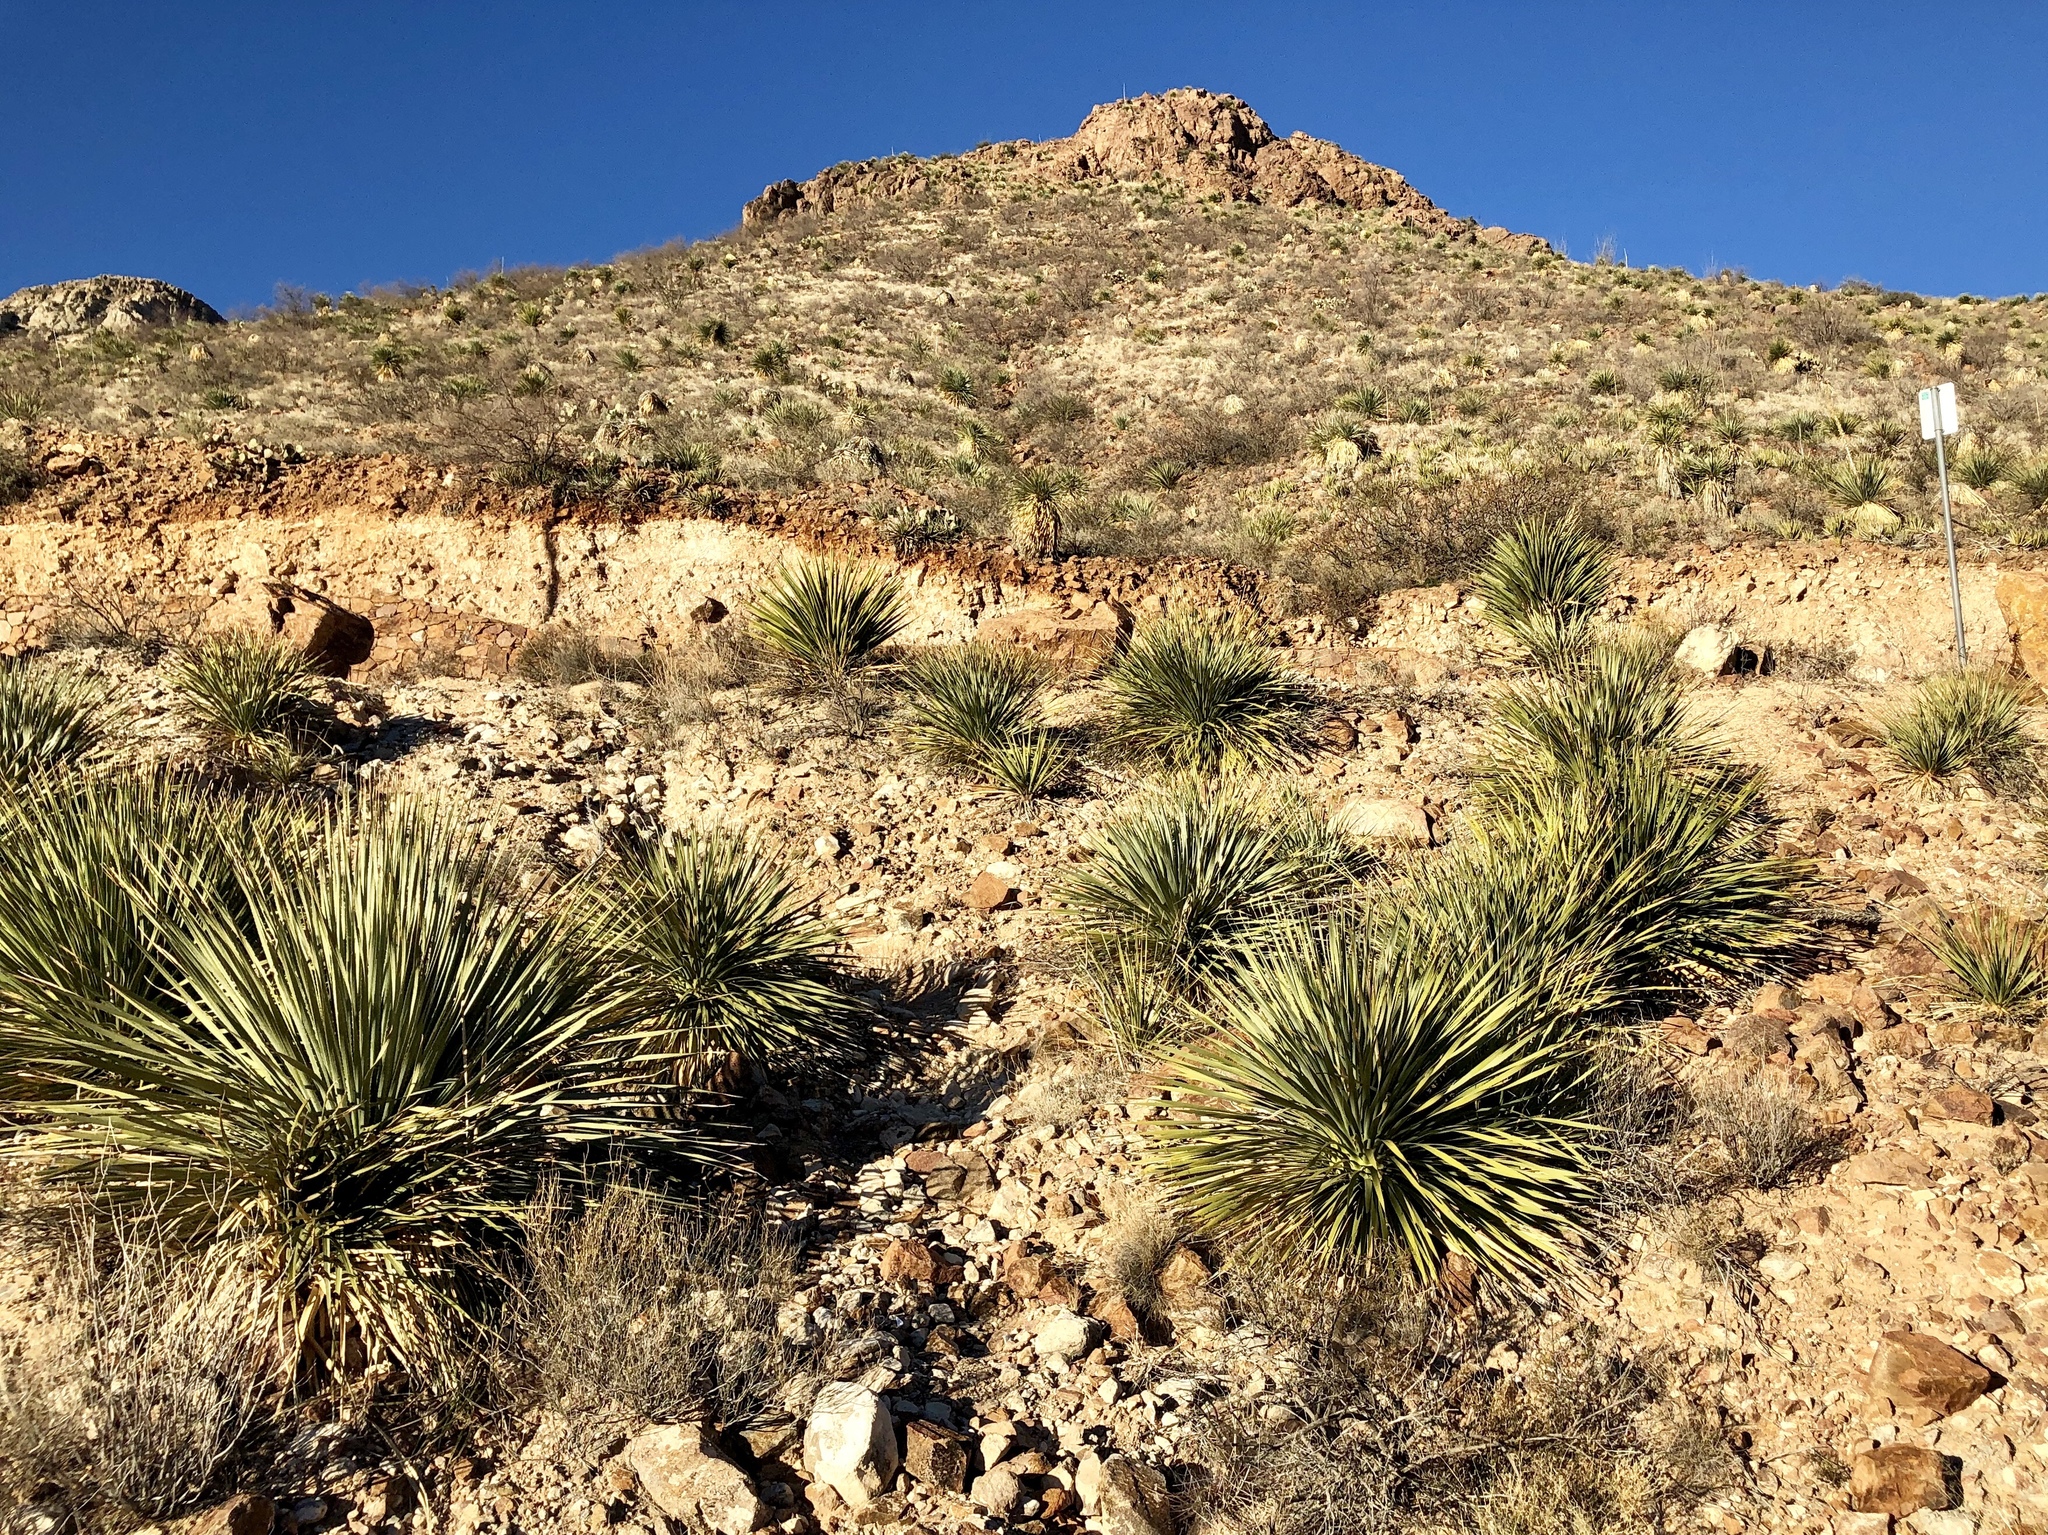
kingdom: Plantae
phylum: Tracheophyta
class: Liliopsida
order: Asparagales
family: Asparagaceae
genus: Dasylirion
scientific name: Dasylirion wheeleri
